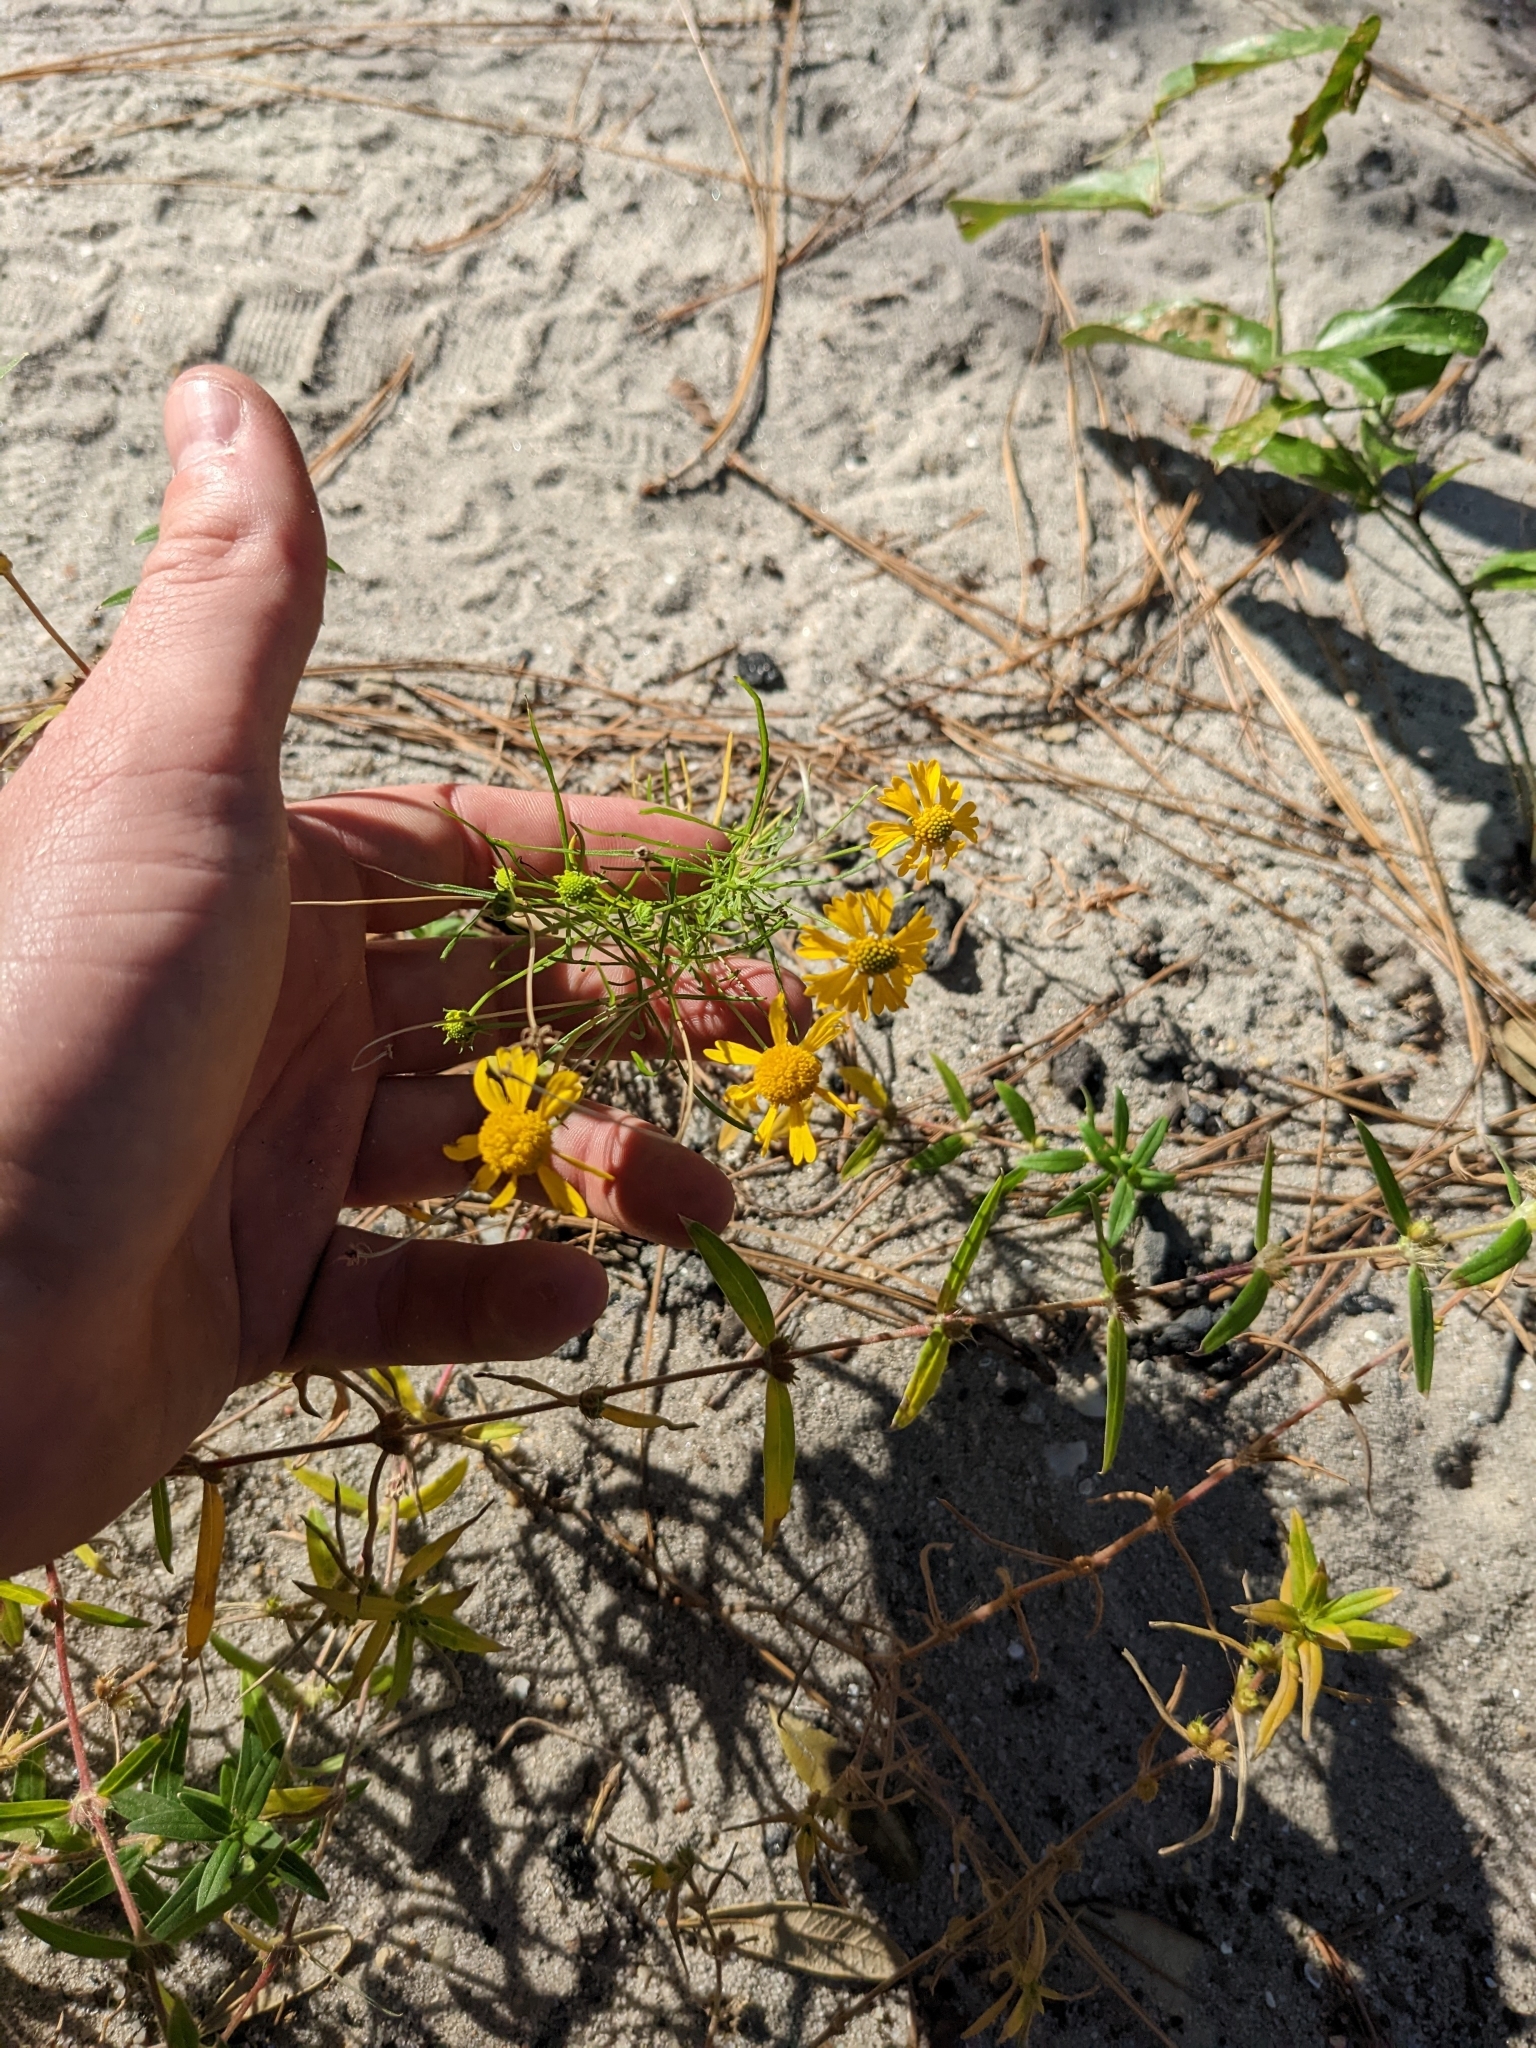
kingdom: Plantae
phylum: Tracheophyta
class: Magnoliopsida
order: Asterales
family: Asteraceae
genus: Helenium
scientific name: Helenium amarum
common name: Bitter sneezeweed
